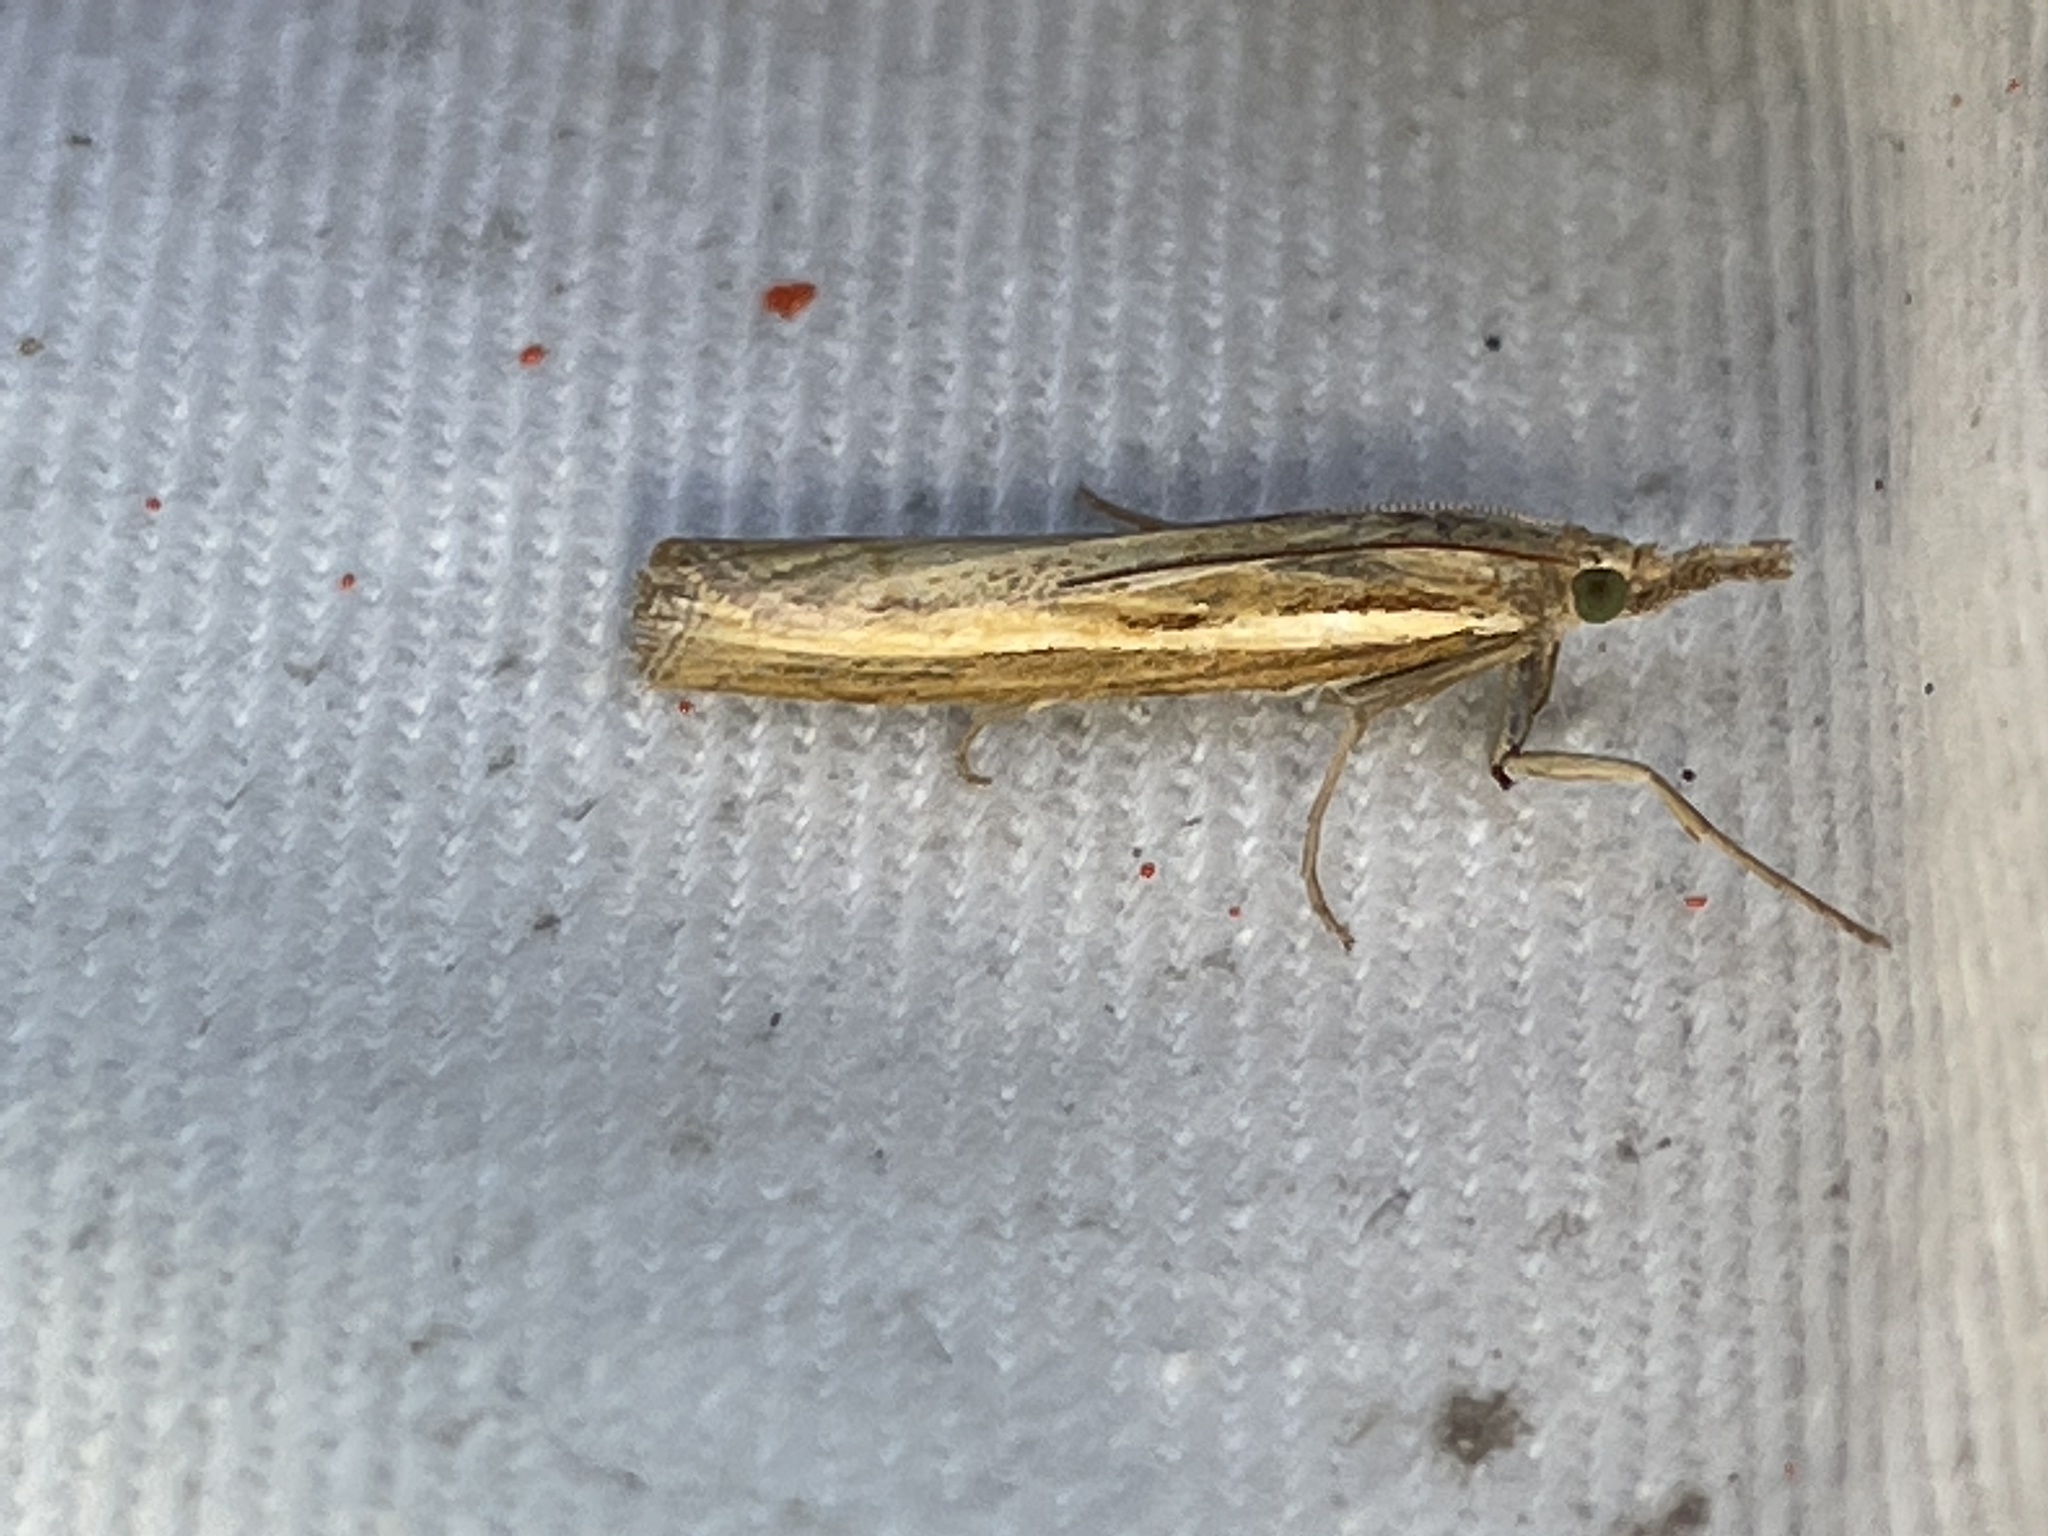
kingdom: Animalia
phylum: Arthropoda
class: Insecta
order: Lepidoptera
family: Crambidae
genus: Agriphila
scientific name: Agriphila tristellus
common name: Common grass-veneer
